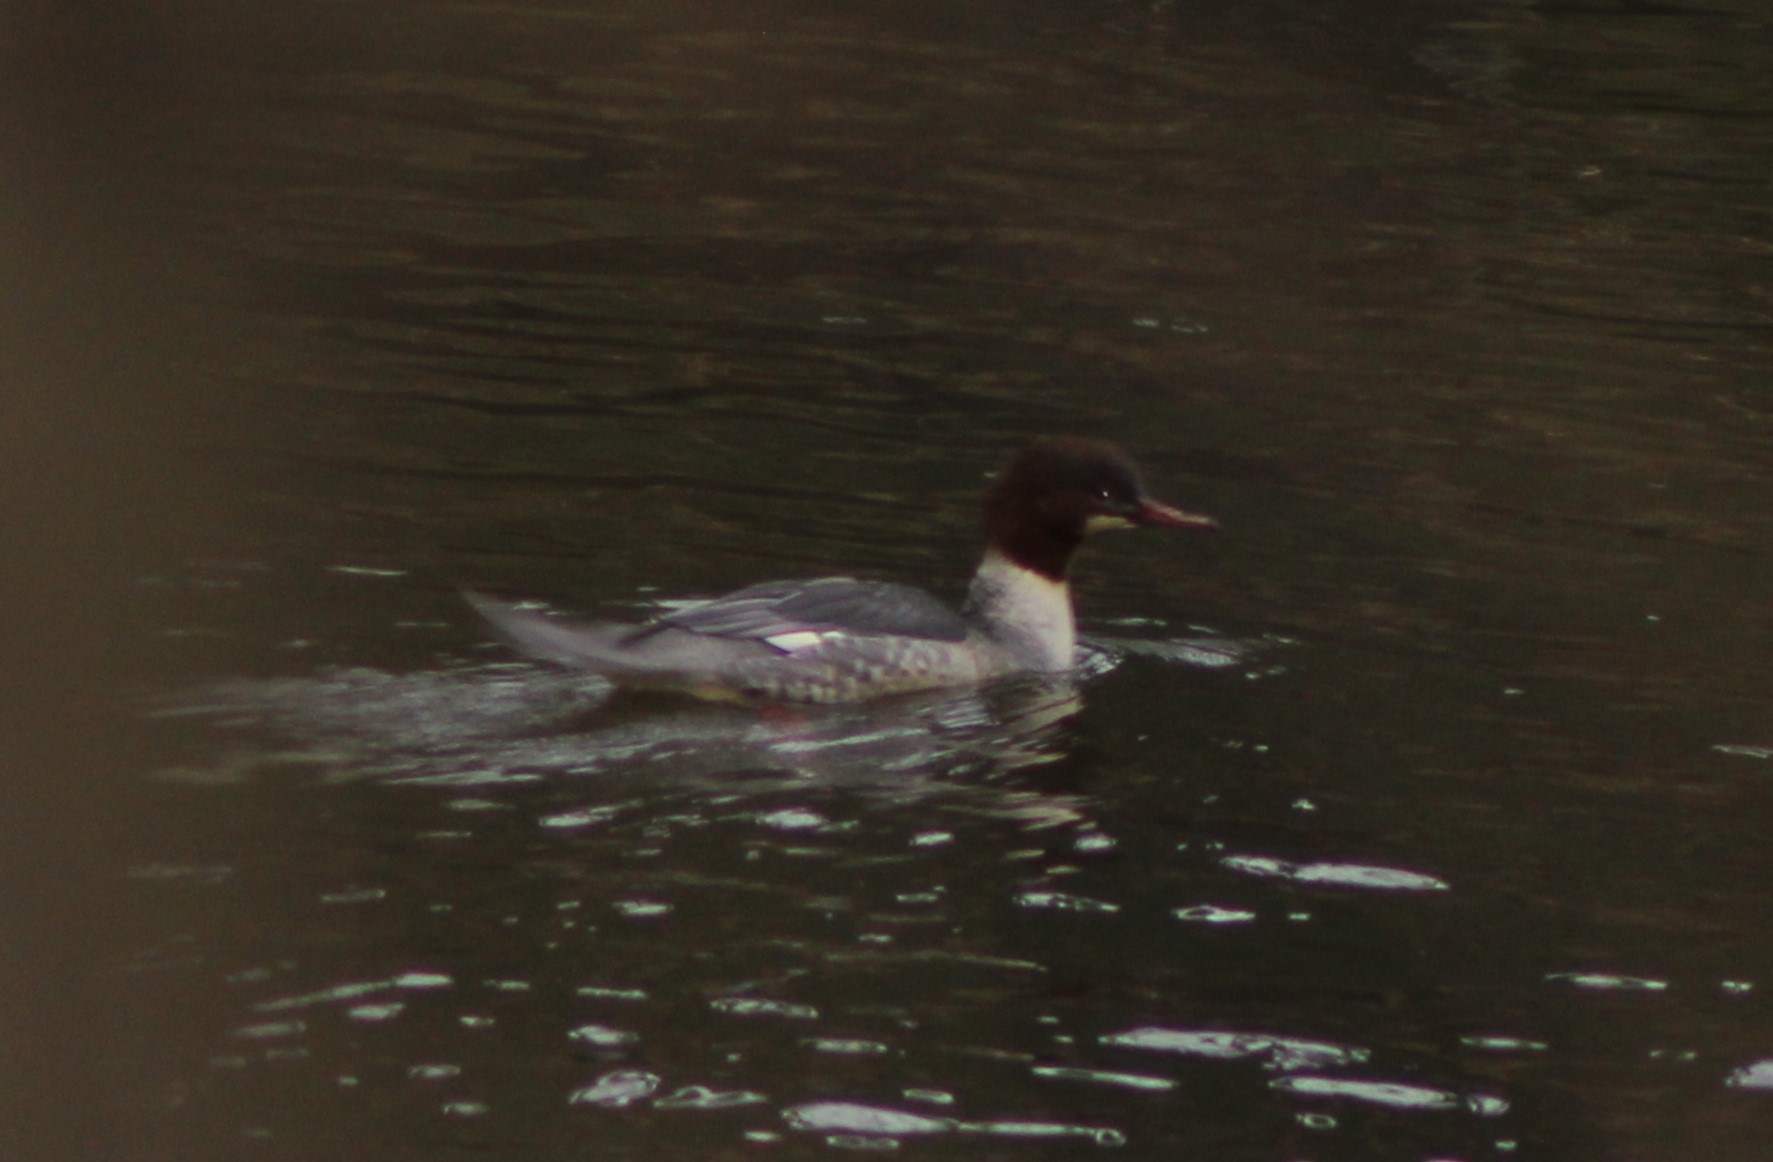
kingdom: Animalia
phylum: Chordata
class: Aves
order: Anseriformes
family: Anatidae
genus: Mergus
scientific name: Mergus merganser
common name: Common merganser
